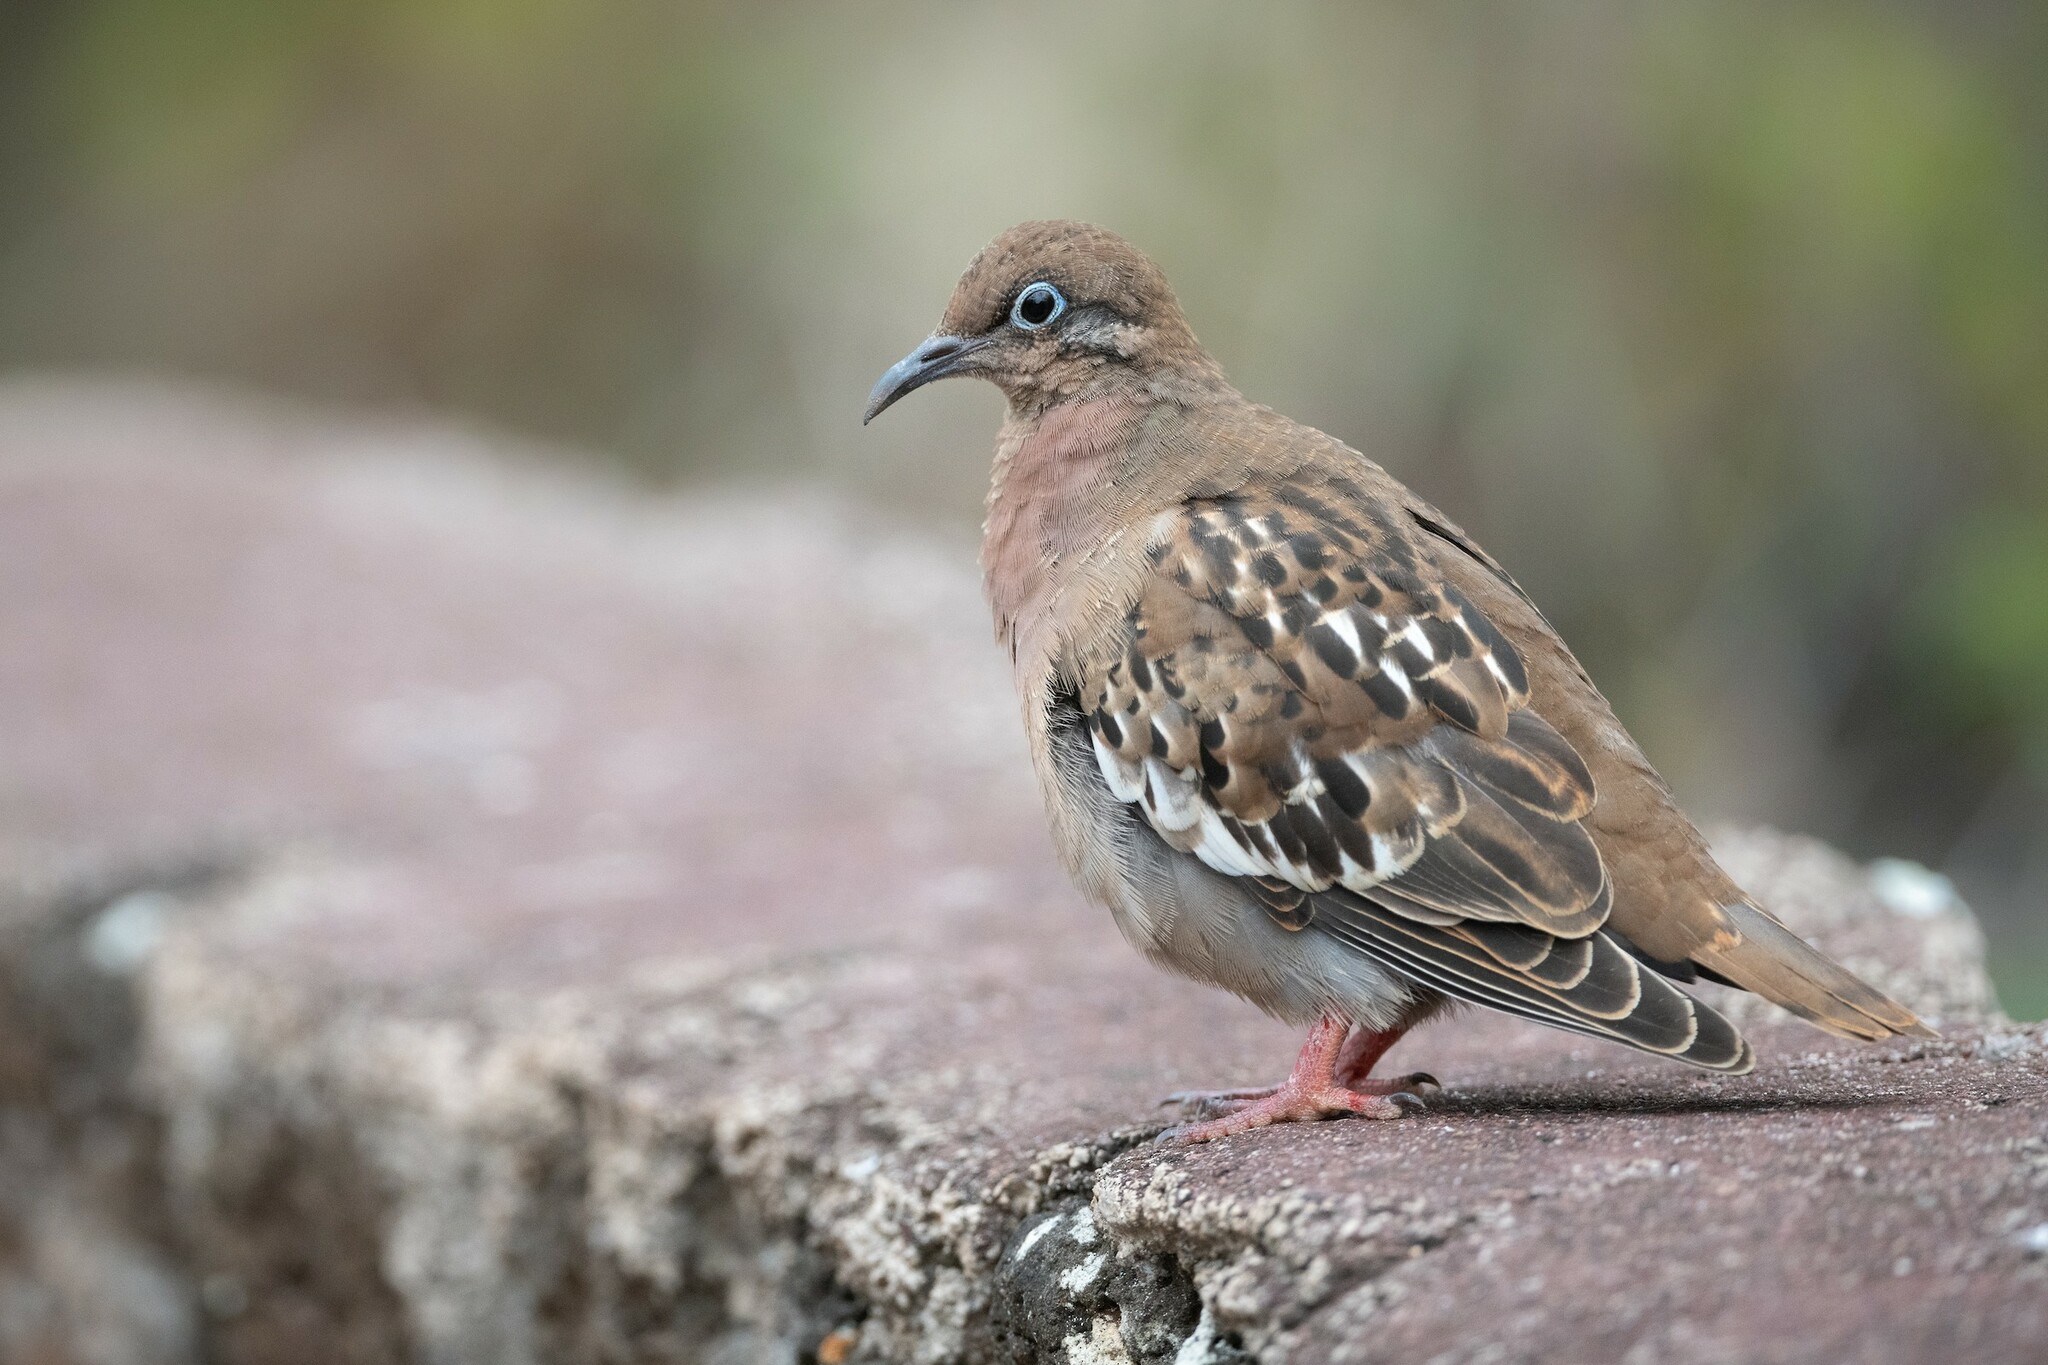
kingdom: Animalia
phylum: Chordata
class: Aves
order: Columbiformes
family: Columbidae
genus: Zenaida
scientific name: Zenaida galapagoensis
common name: Galapagos dove
